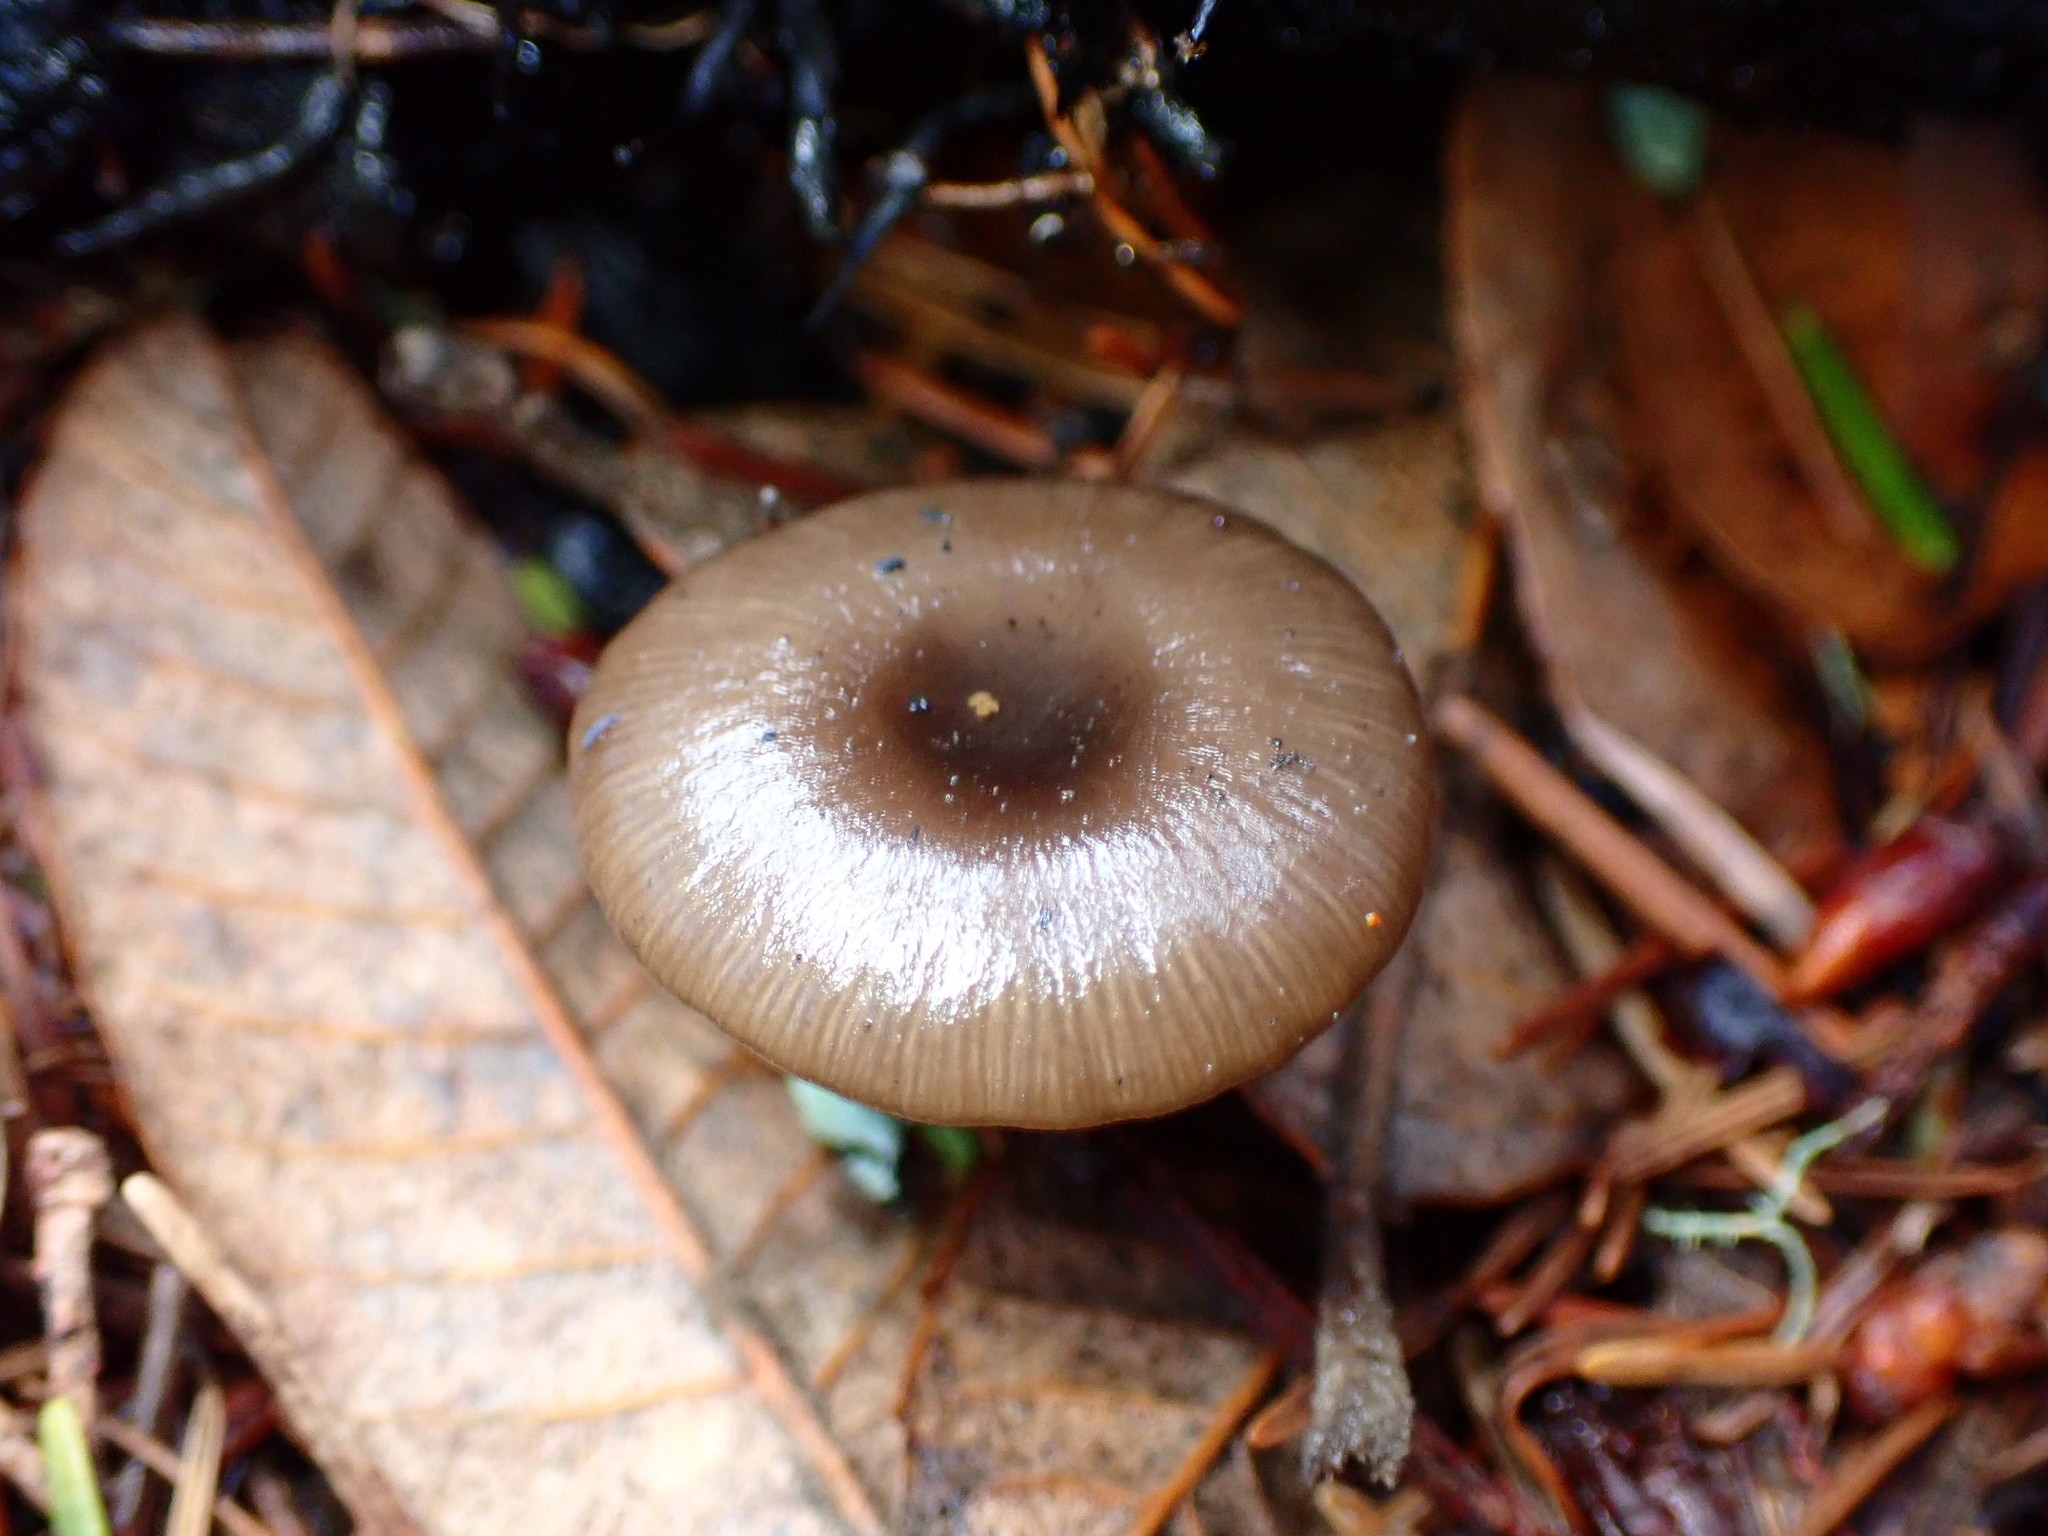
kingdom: Fungi
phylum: Basidiomycota
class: Agaricomycetes
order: Agaricales
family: Tricholomataceae
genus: Myxomphalia
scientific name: Myxomphalia maura
